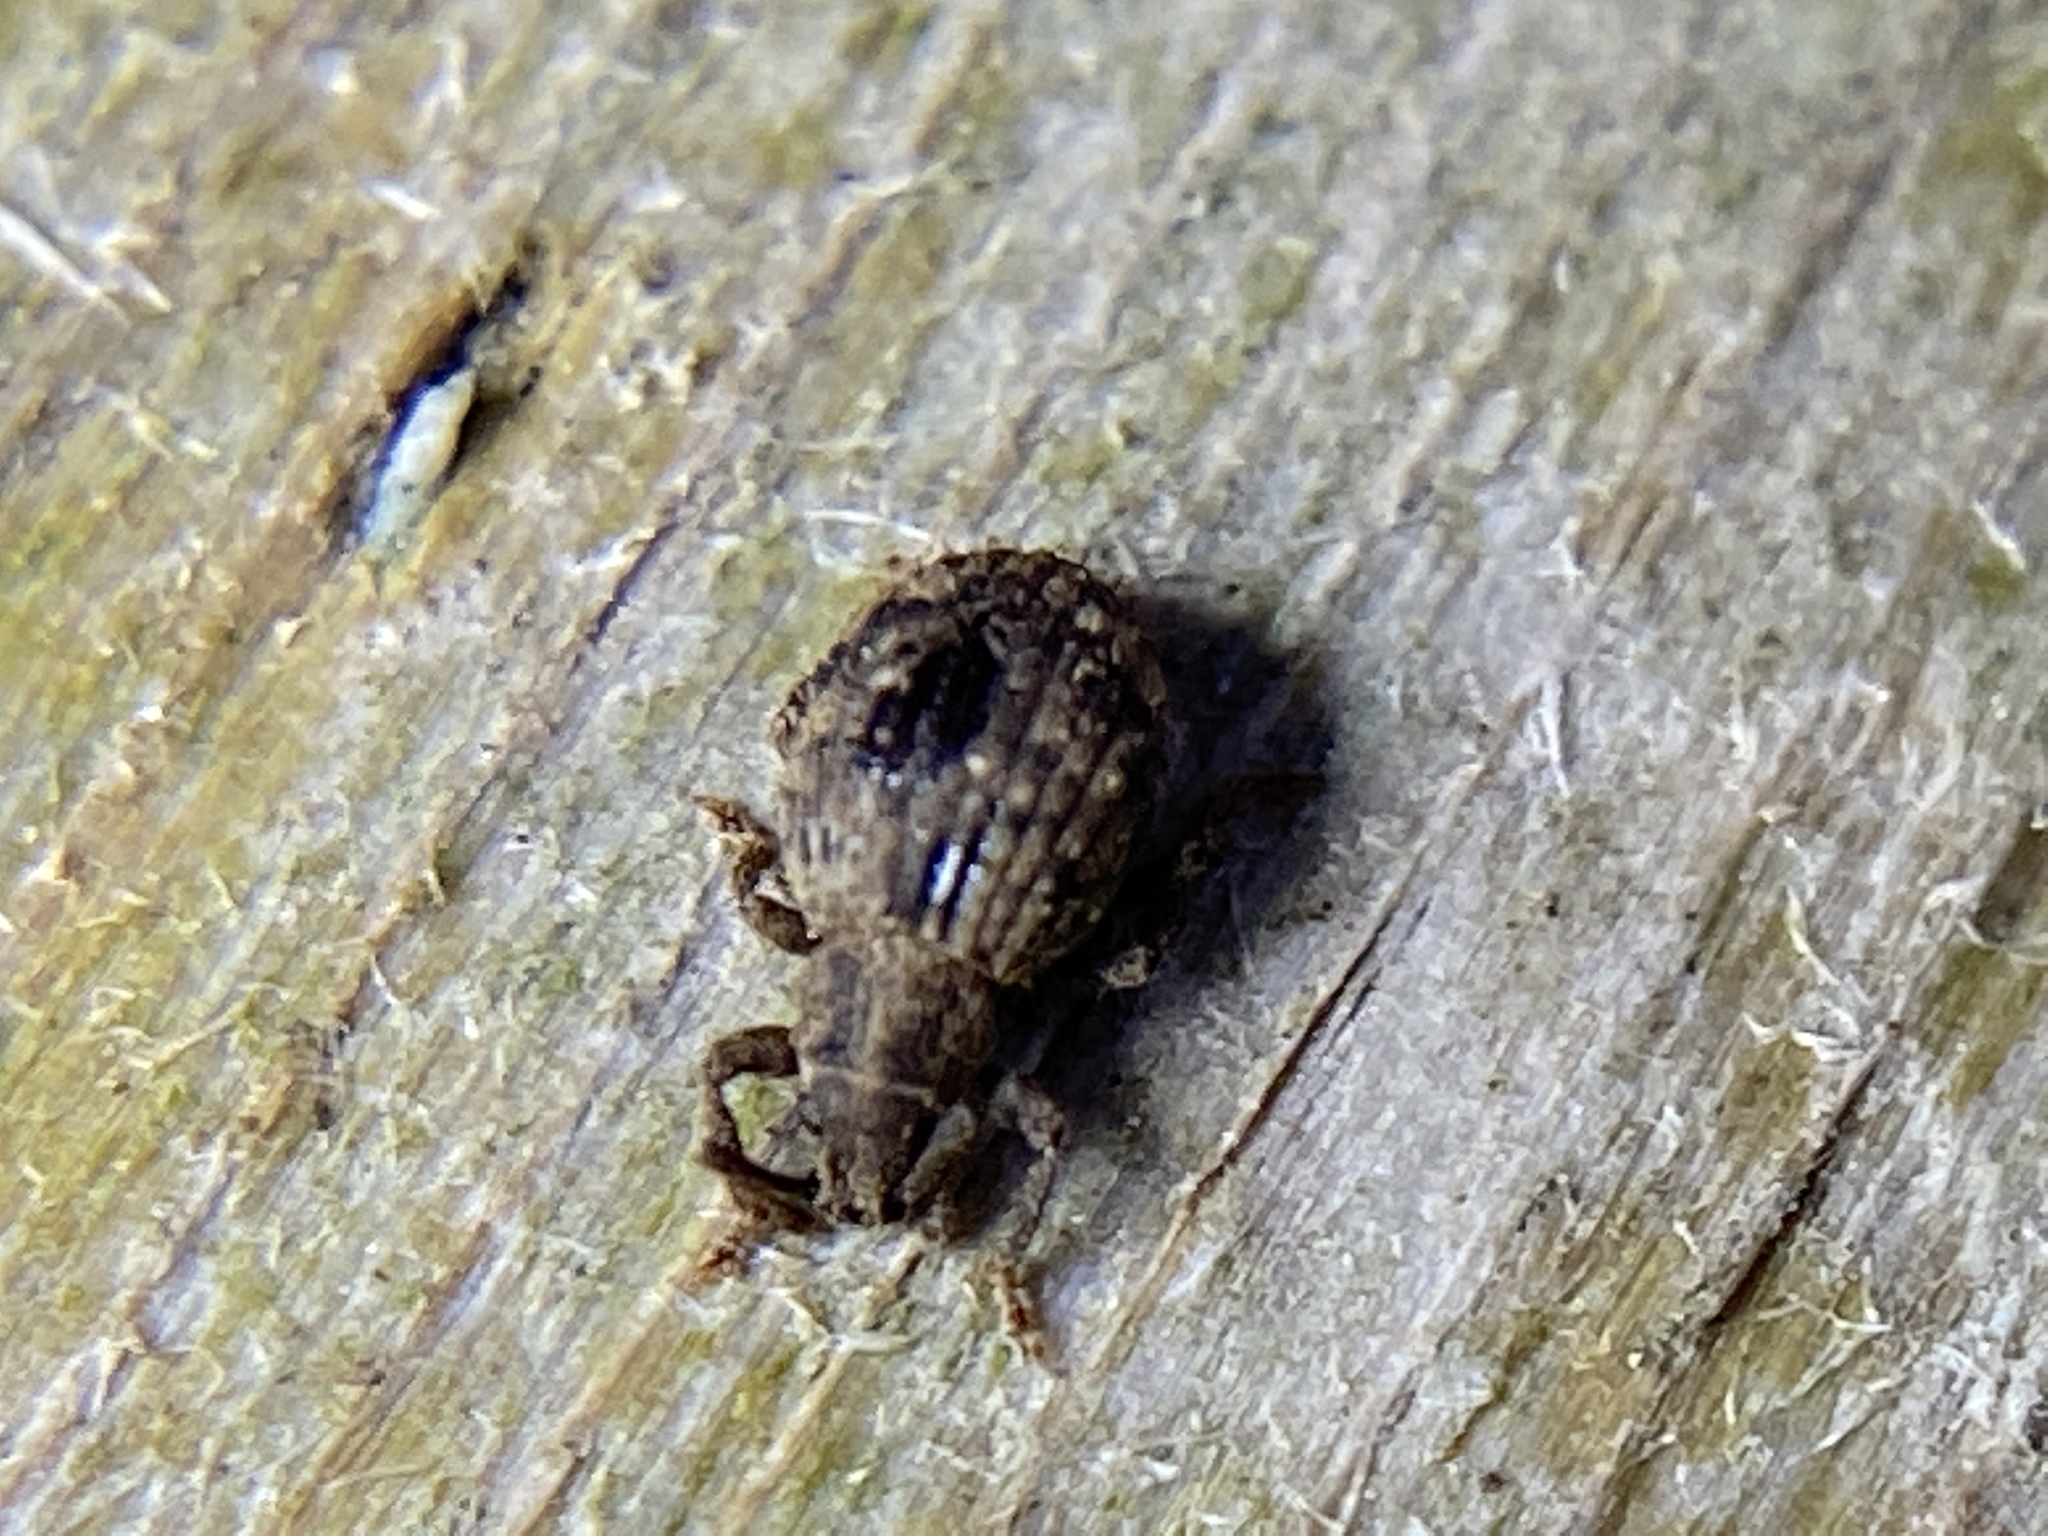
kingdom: Animalia
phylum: Arthropoda
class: Insecta
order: Coleoptera
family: Curculionidae
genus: Myosides
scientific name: Myosides seriehispidus
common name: Broadnosed weevil
